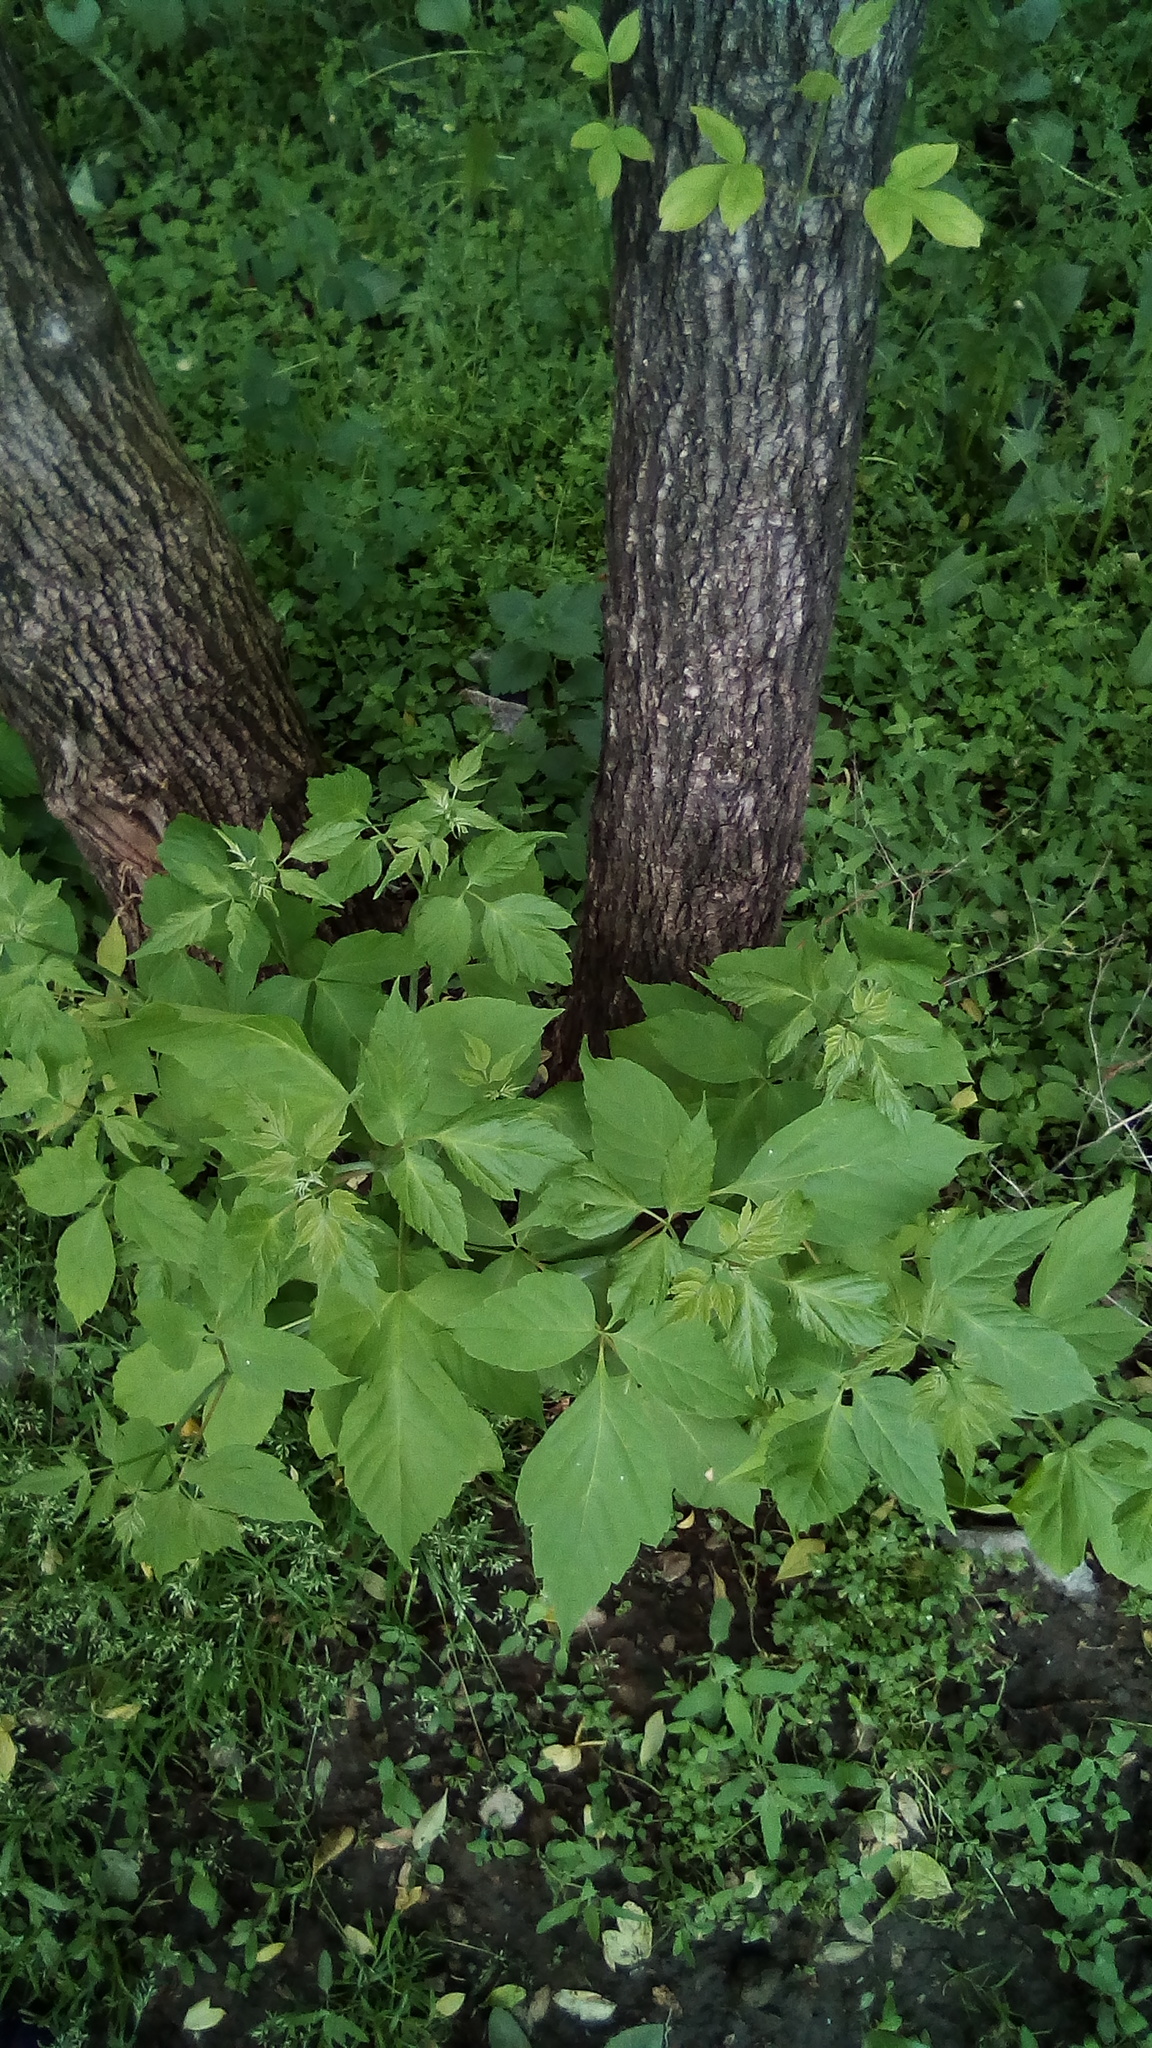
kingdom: Plantae
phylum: Tracheophyta
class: Magnoliopsida
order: Sapindales
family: Sapindaceae
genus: Acer
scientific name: Acer negundo
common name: Ashleaf maple
